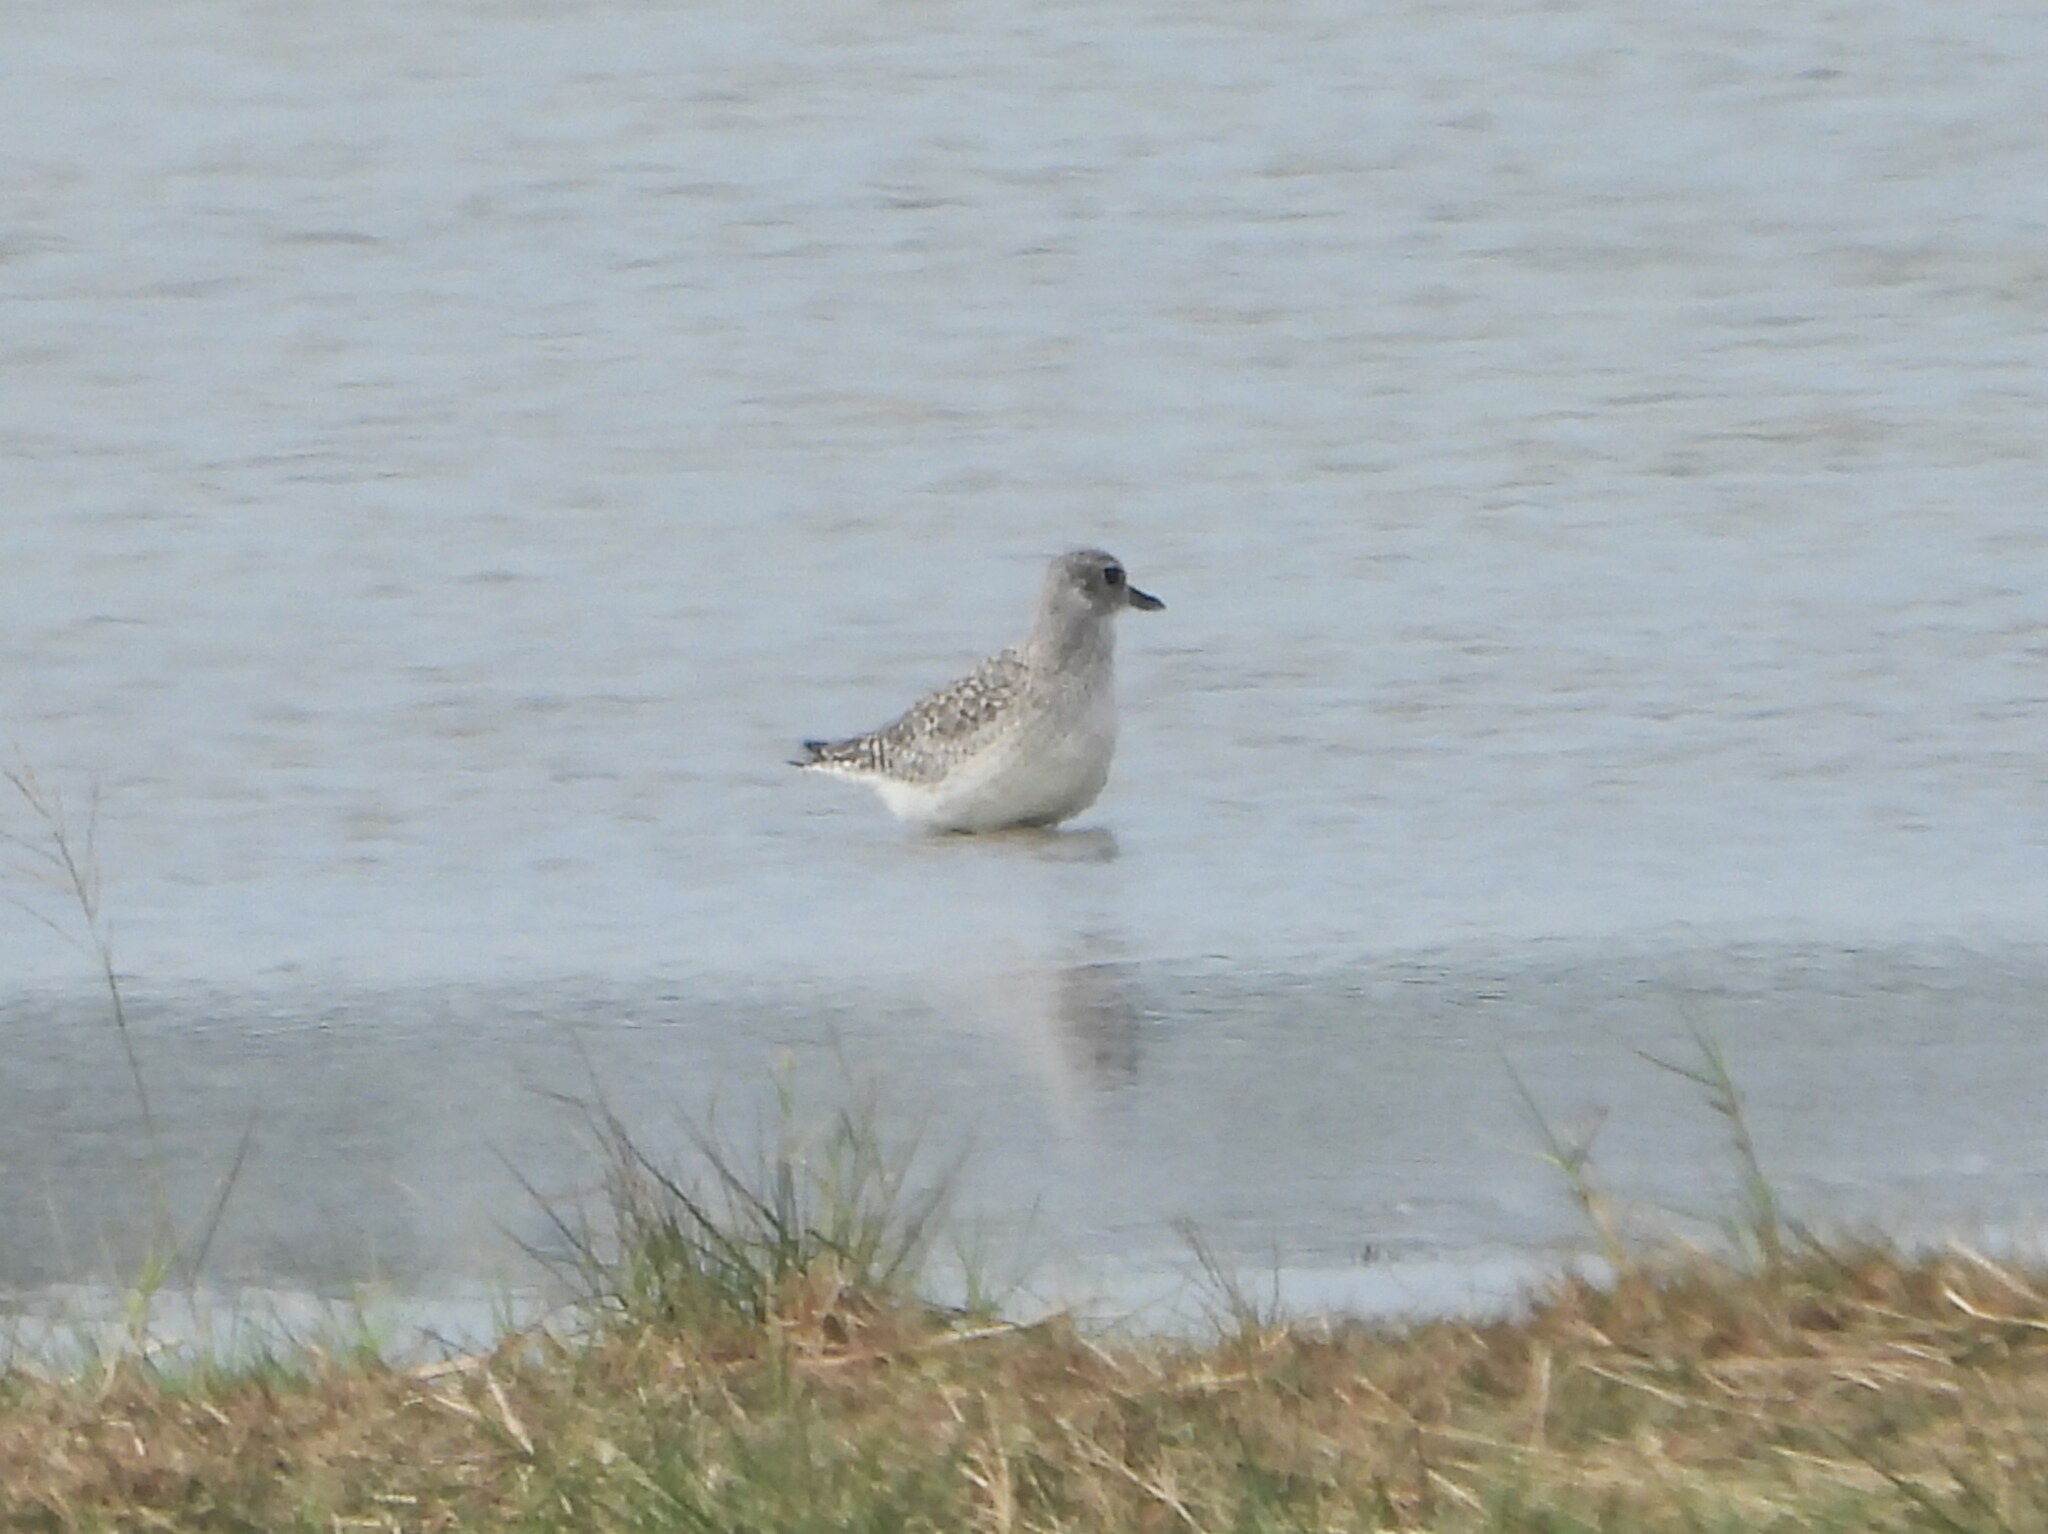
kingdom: Animalia
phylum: Chordata
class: Aves
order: Charadriiformes
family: Charadriidae
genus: Pluvialis
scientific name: Pluvialis squatarola
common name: Grey plover
